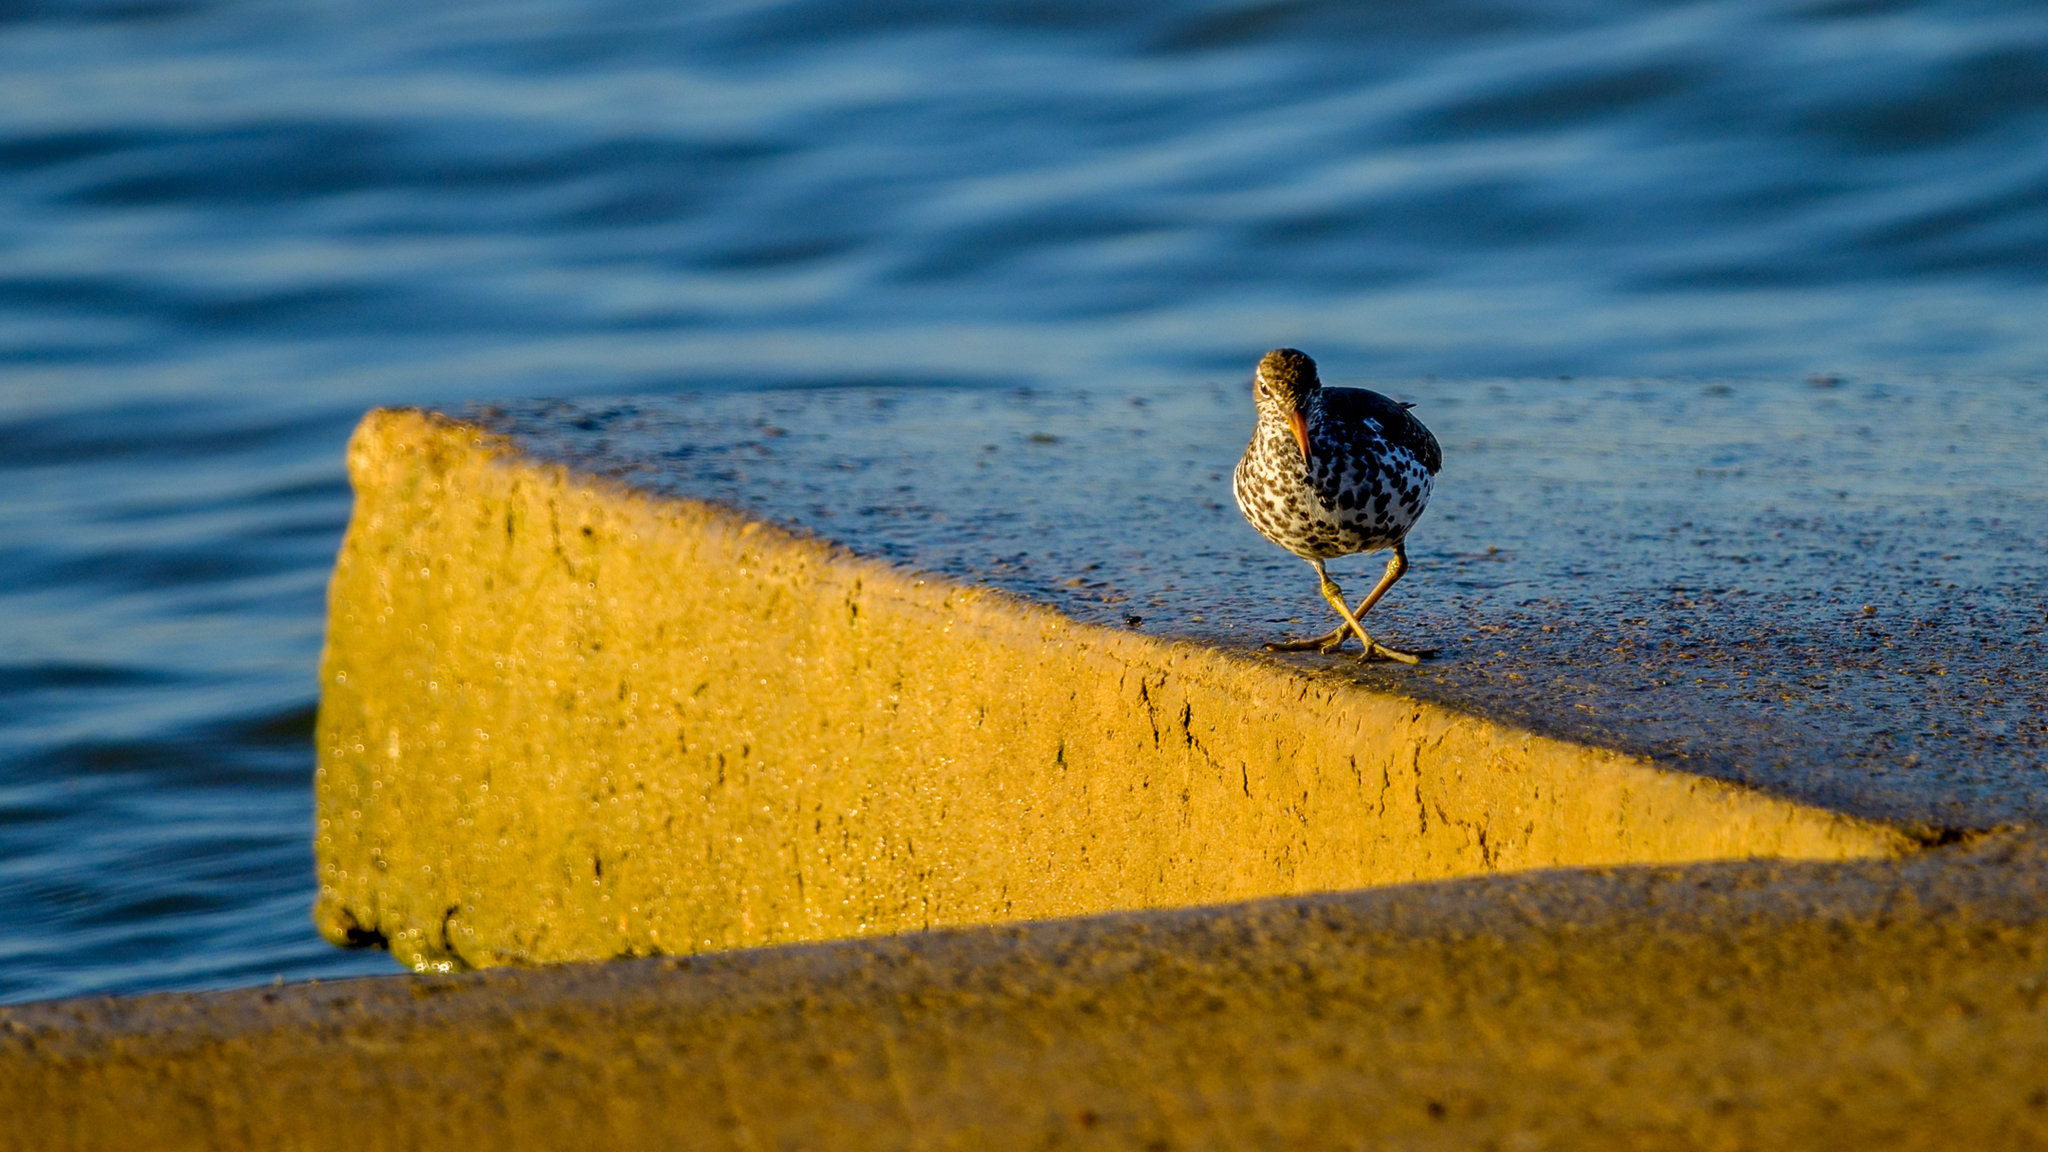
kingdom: Animalia
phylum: Chordata
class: Aves
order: Charadriiformes
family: Scolopacidae
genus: Actitis
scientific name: Actitis macularius
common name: Spotted sandpiper
